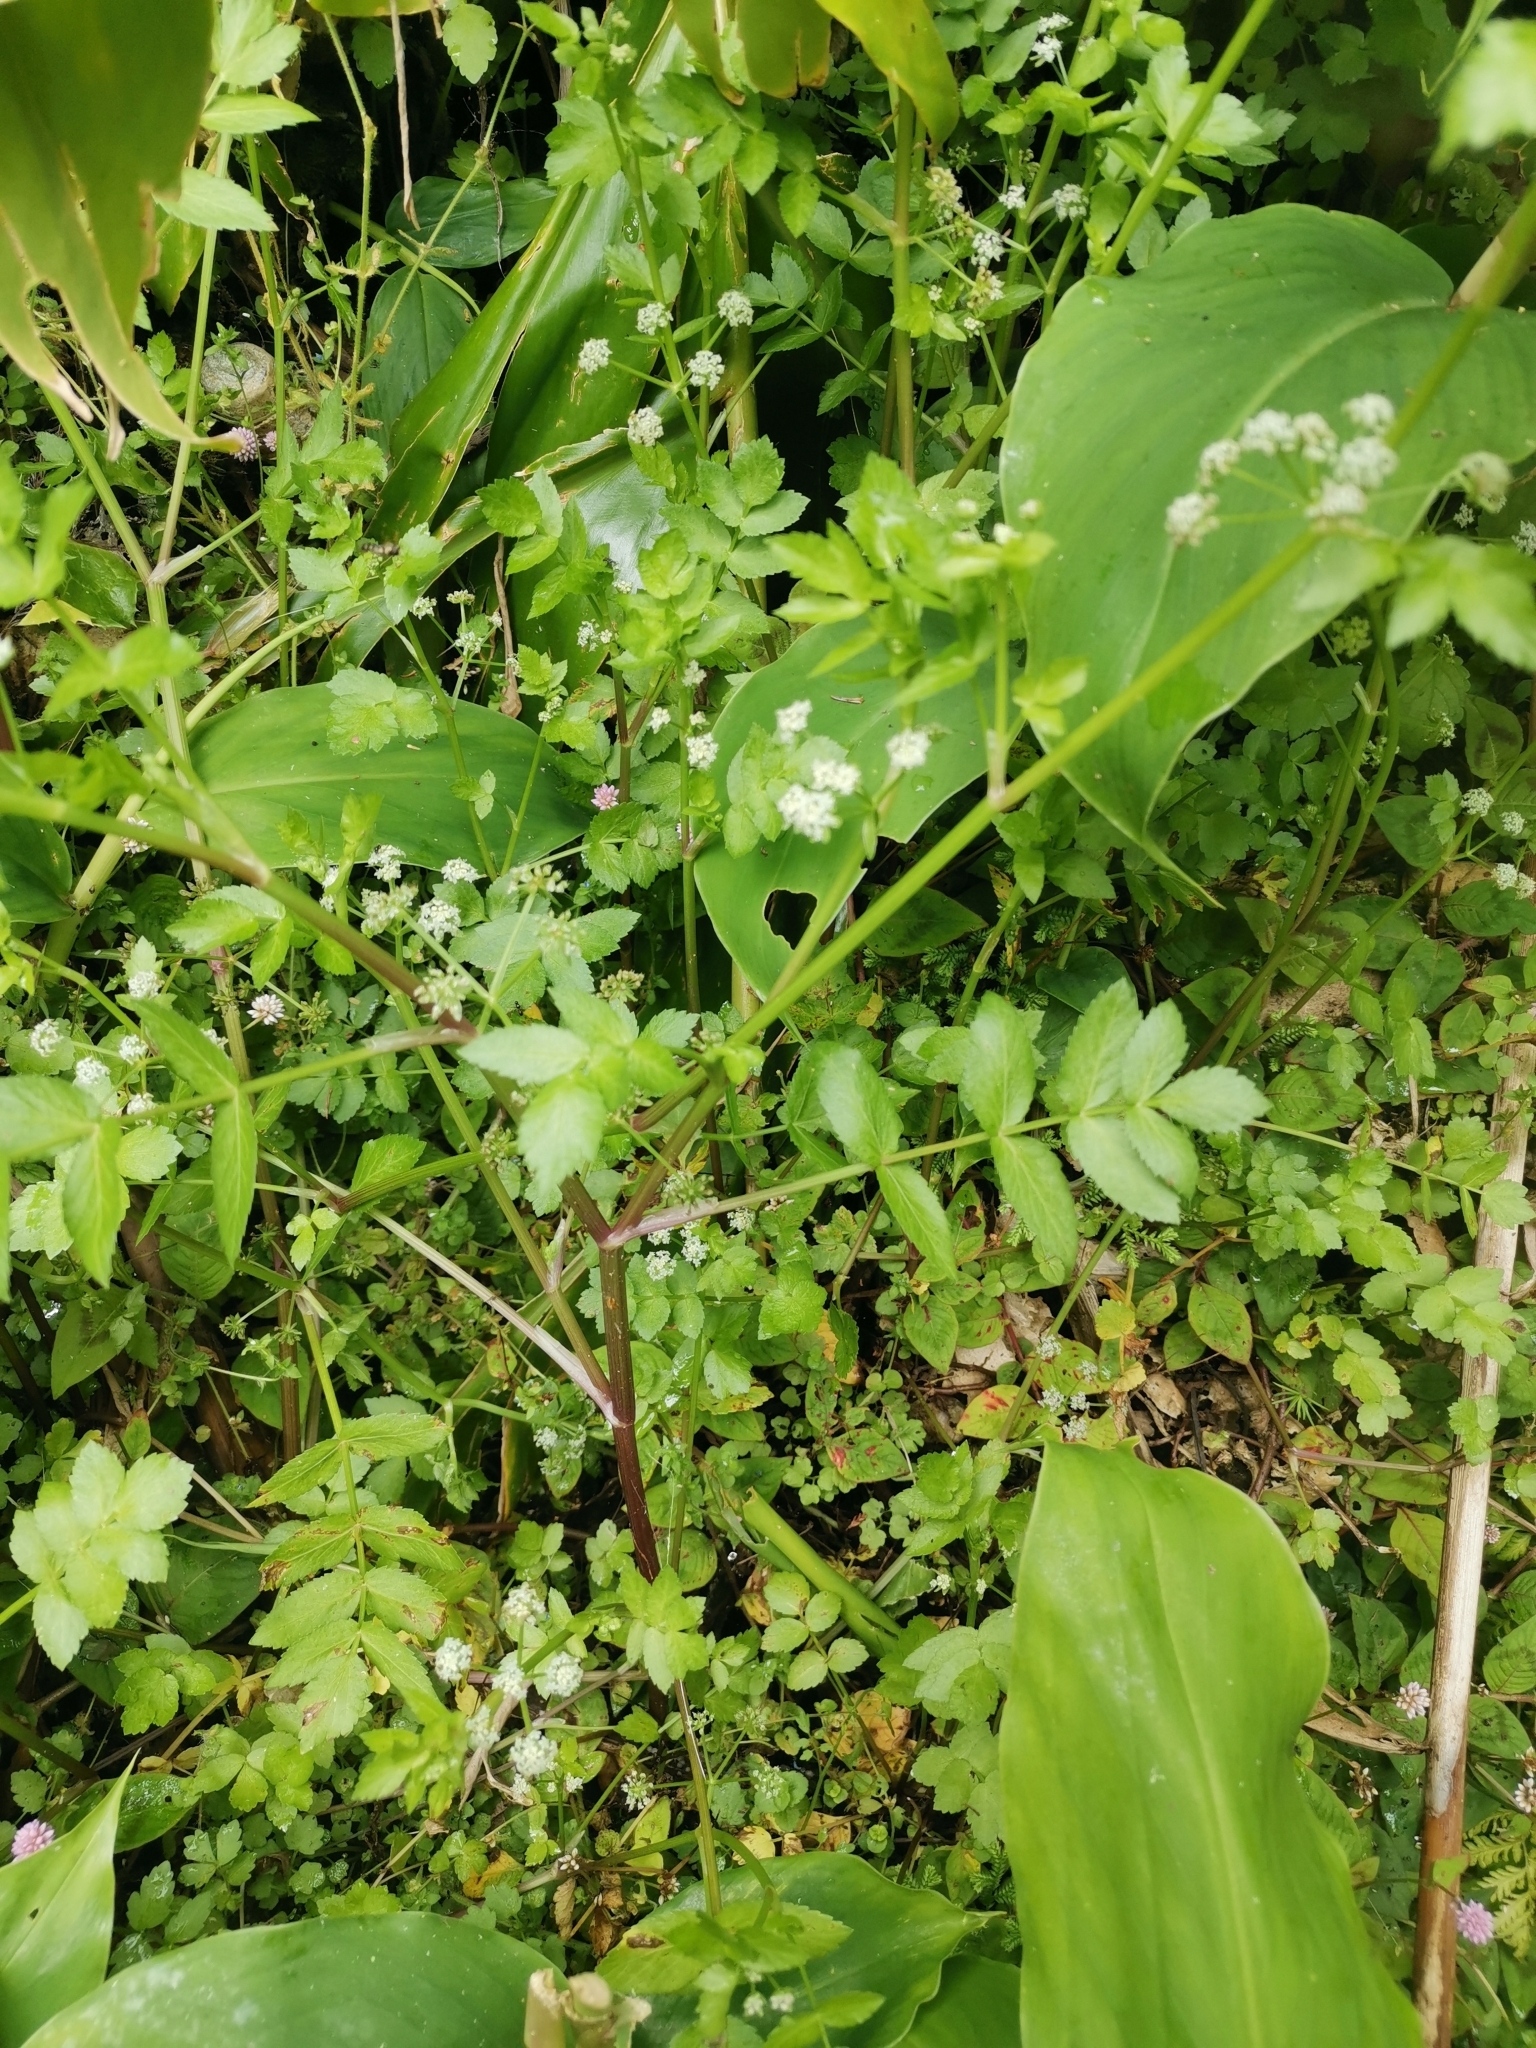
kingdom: Plantae
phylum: Tracheophyta
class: Magnoliopsida
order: Apiales
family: Apiaceae
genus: Helosciadium
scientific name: Helosciadium nodiflorum
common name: Fool's-watercress
